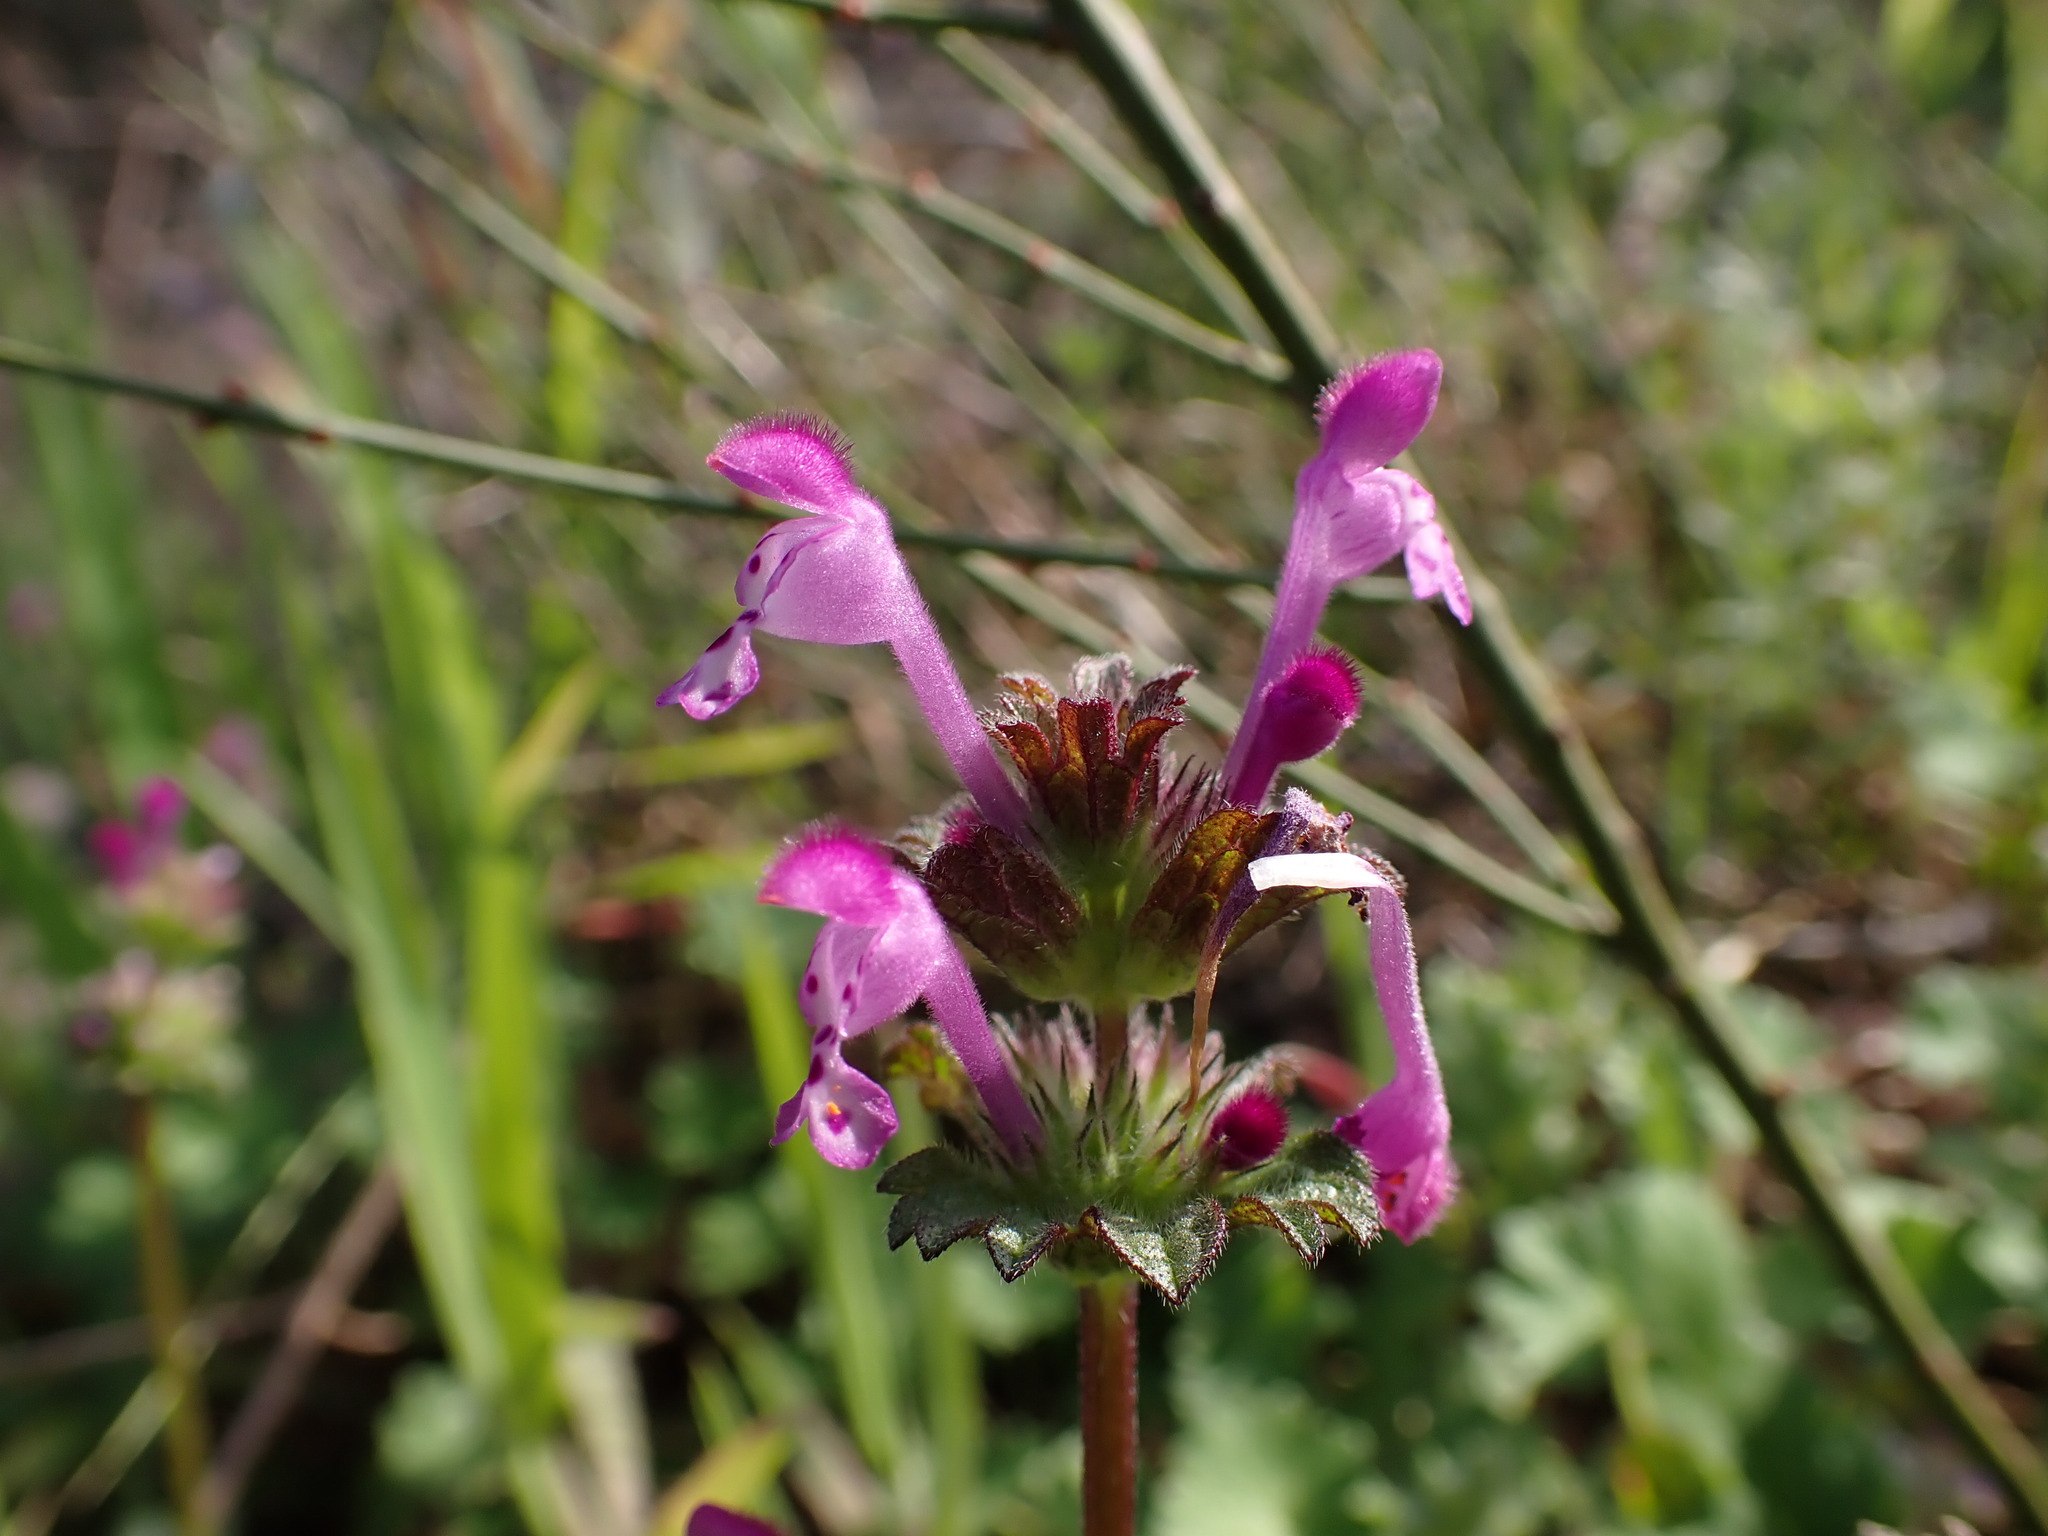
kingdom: Plantae
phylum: Tracheophyta
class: Magnoliopsida
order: Lamiales
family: Lamiaceae
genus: Lamium
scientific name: Lamium amplexicaule
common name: Henbit dead-nettle
